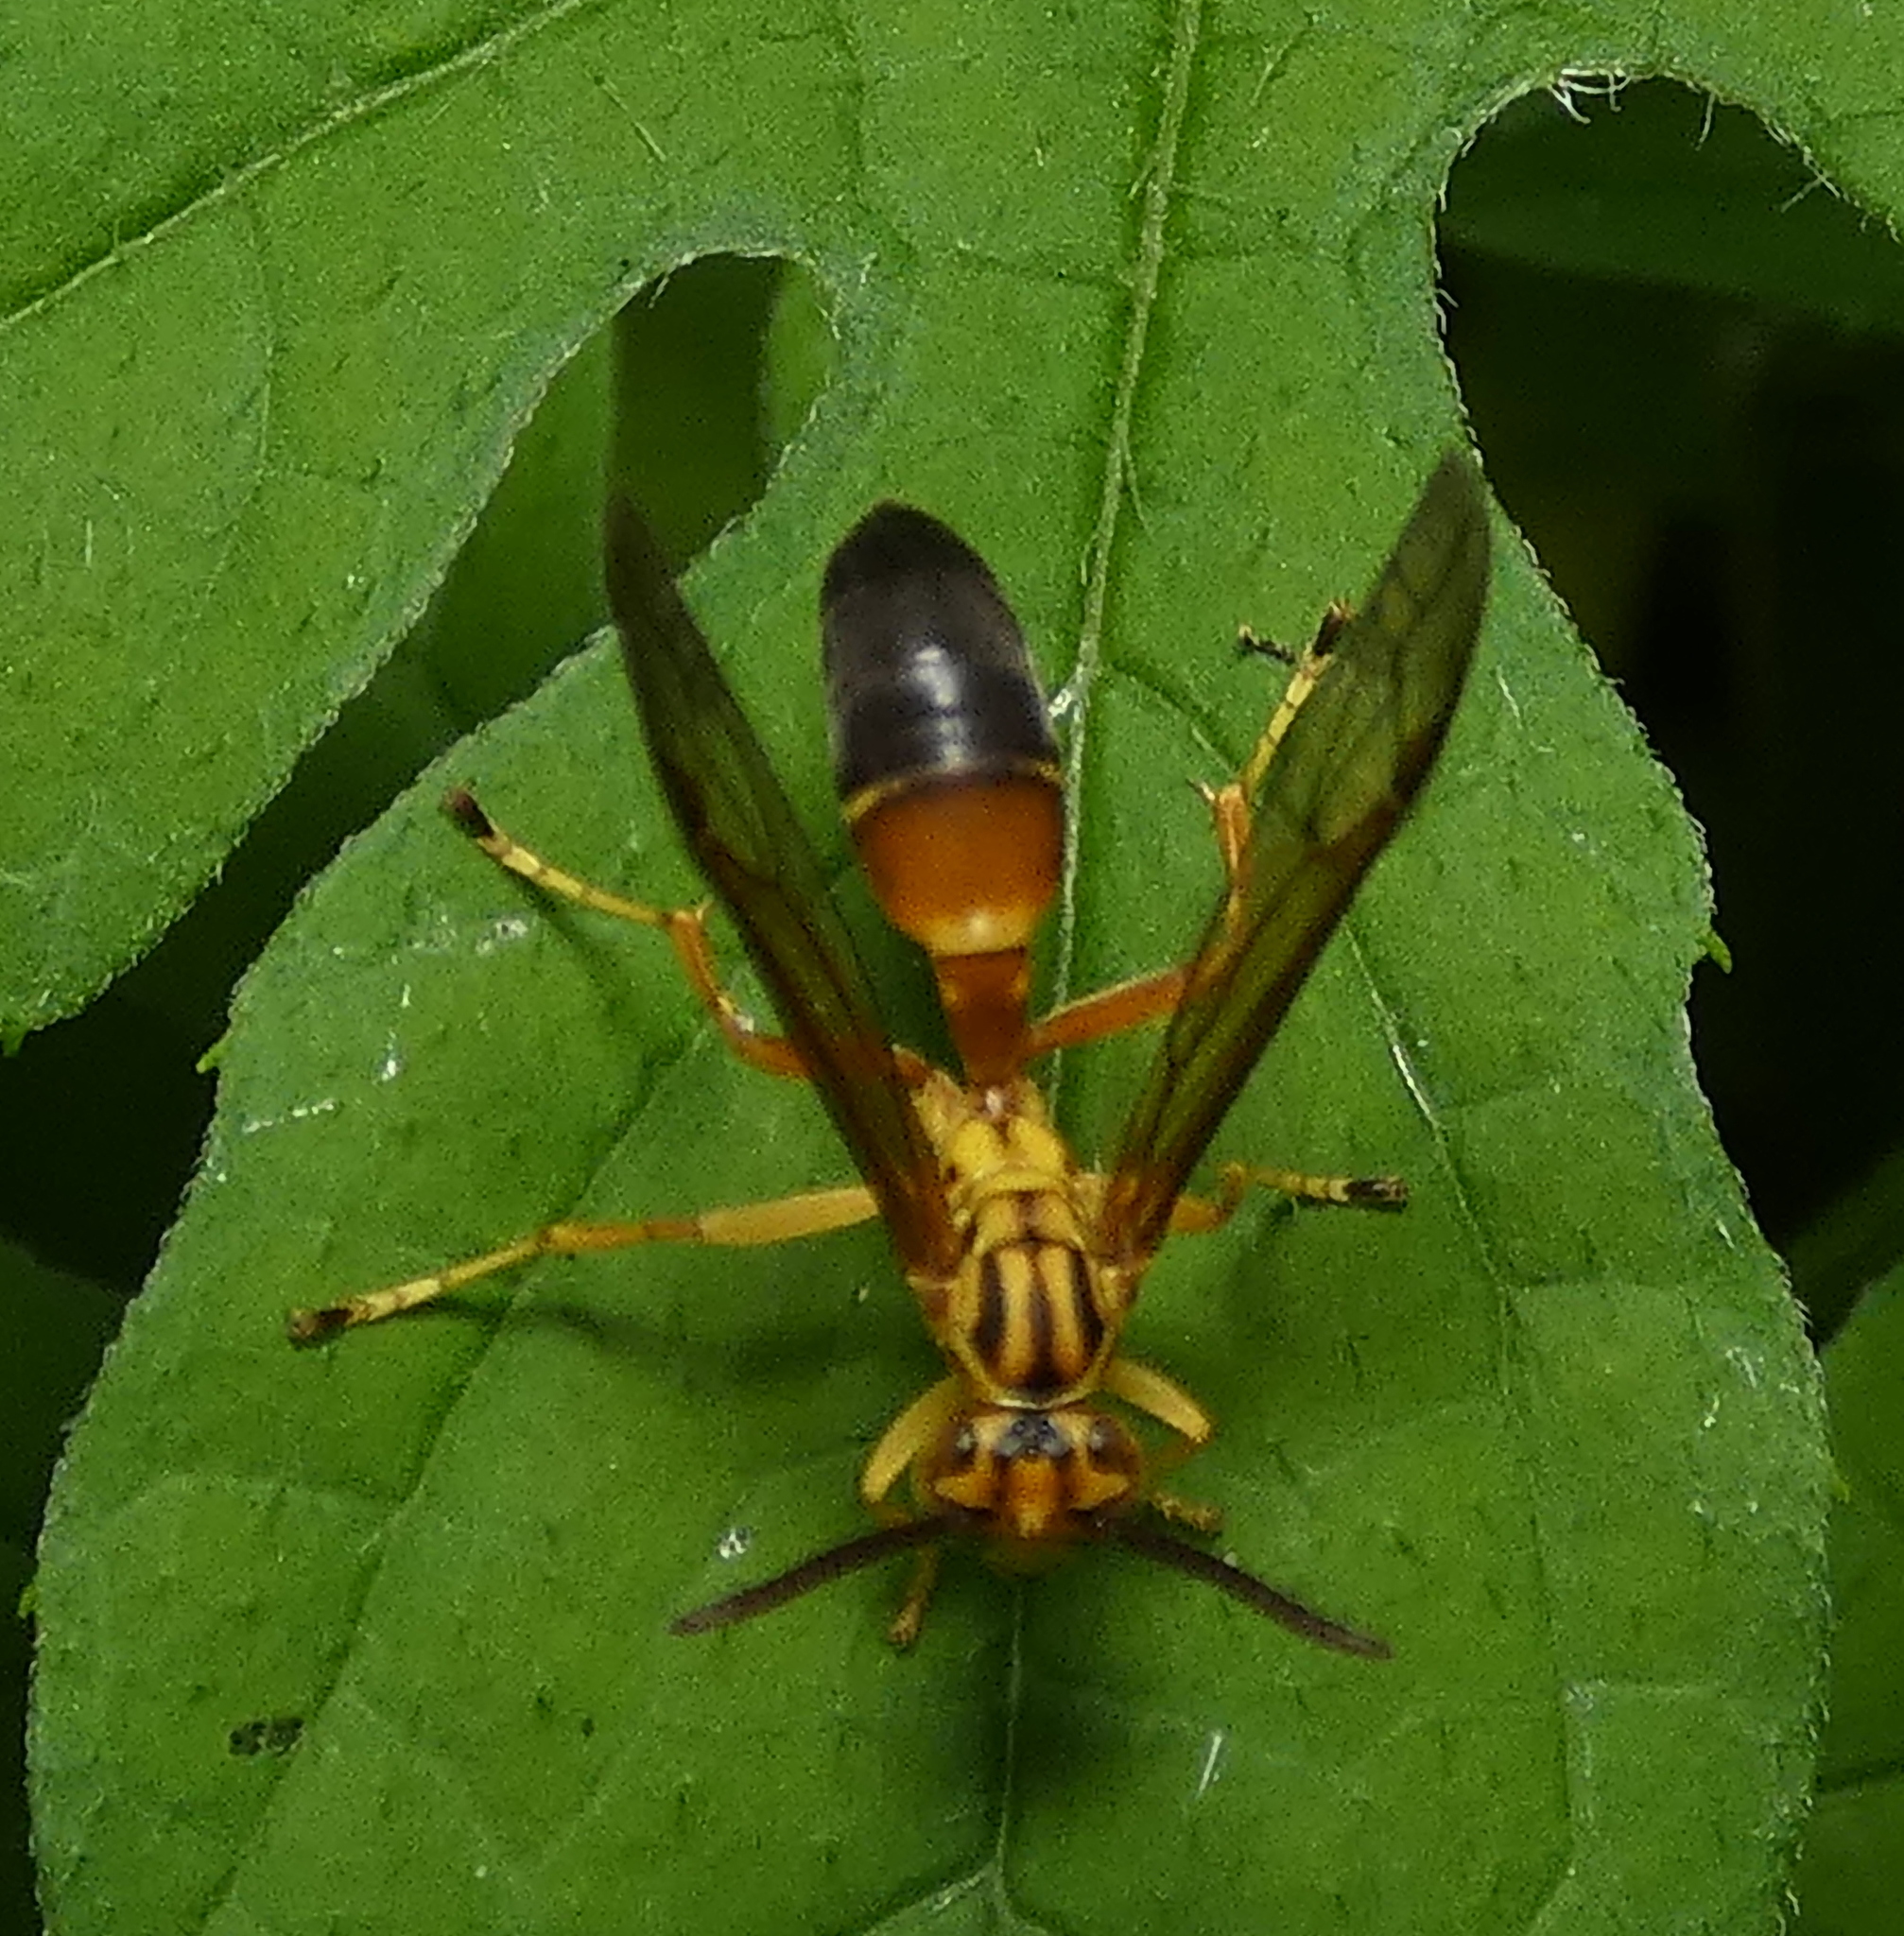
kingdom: Animalia
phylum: Arthropoda
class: Insecta
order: Hymenoptera
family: Vespidae
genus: Agelaia
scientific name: Agelaia pallipes
